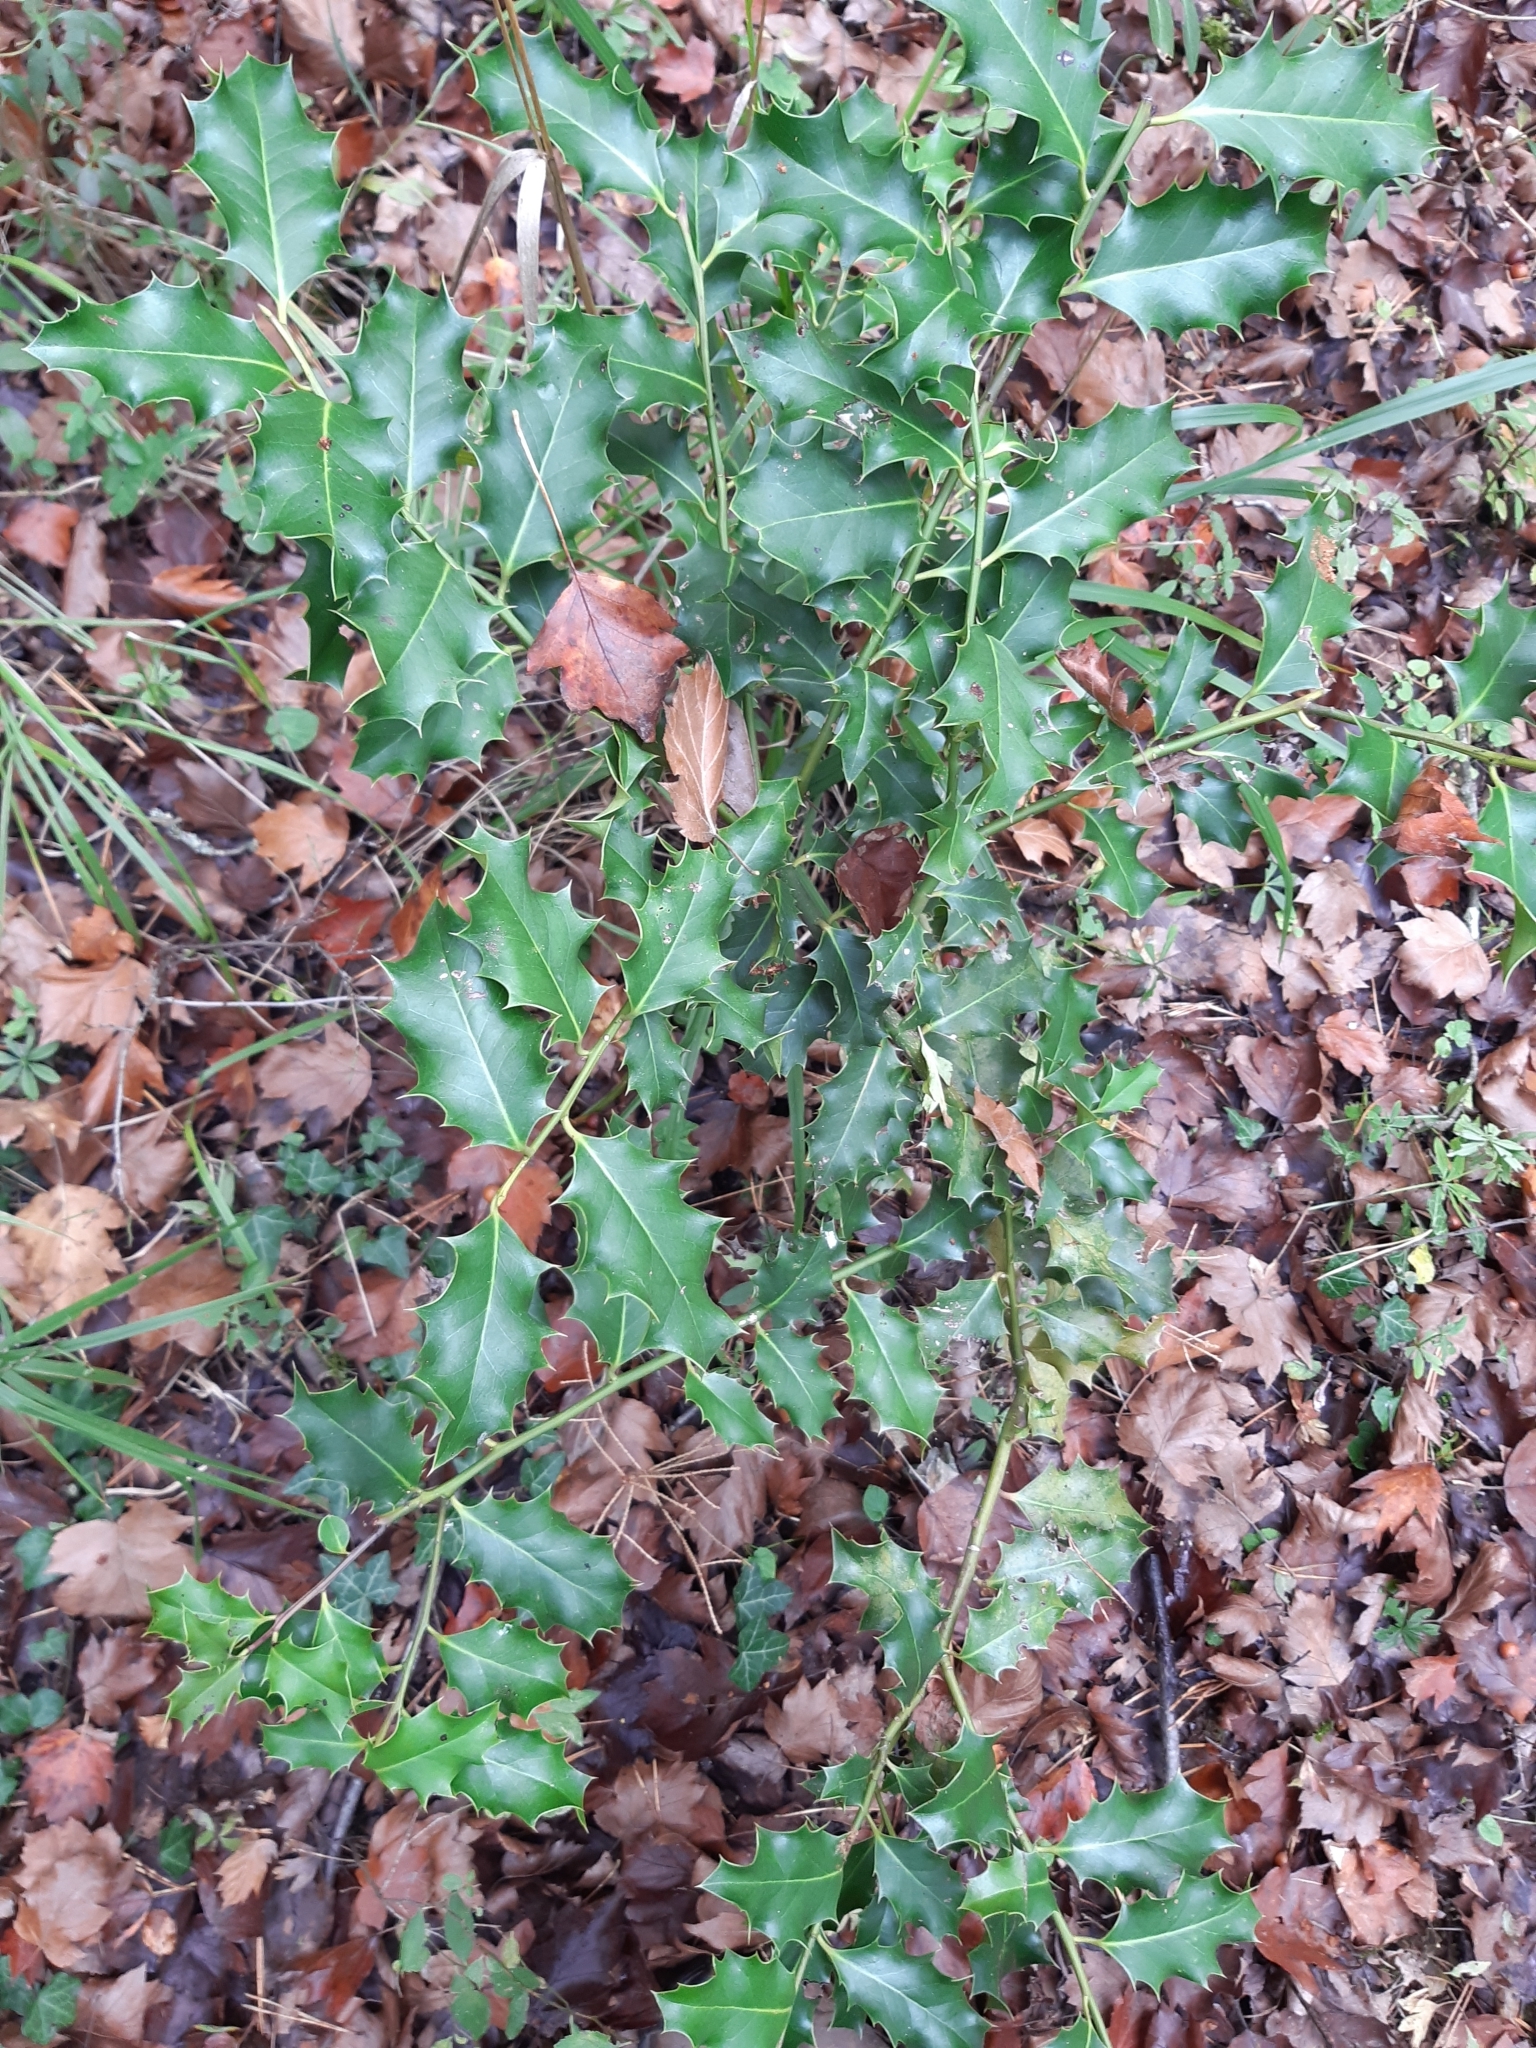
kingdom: Plantae
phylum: Tracheophyta
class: Magnoliopsida
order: Aquifoliales
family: Aquifoliaceae
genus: Ilex
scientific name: Ilex aquifolium
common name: English holly
